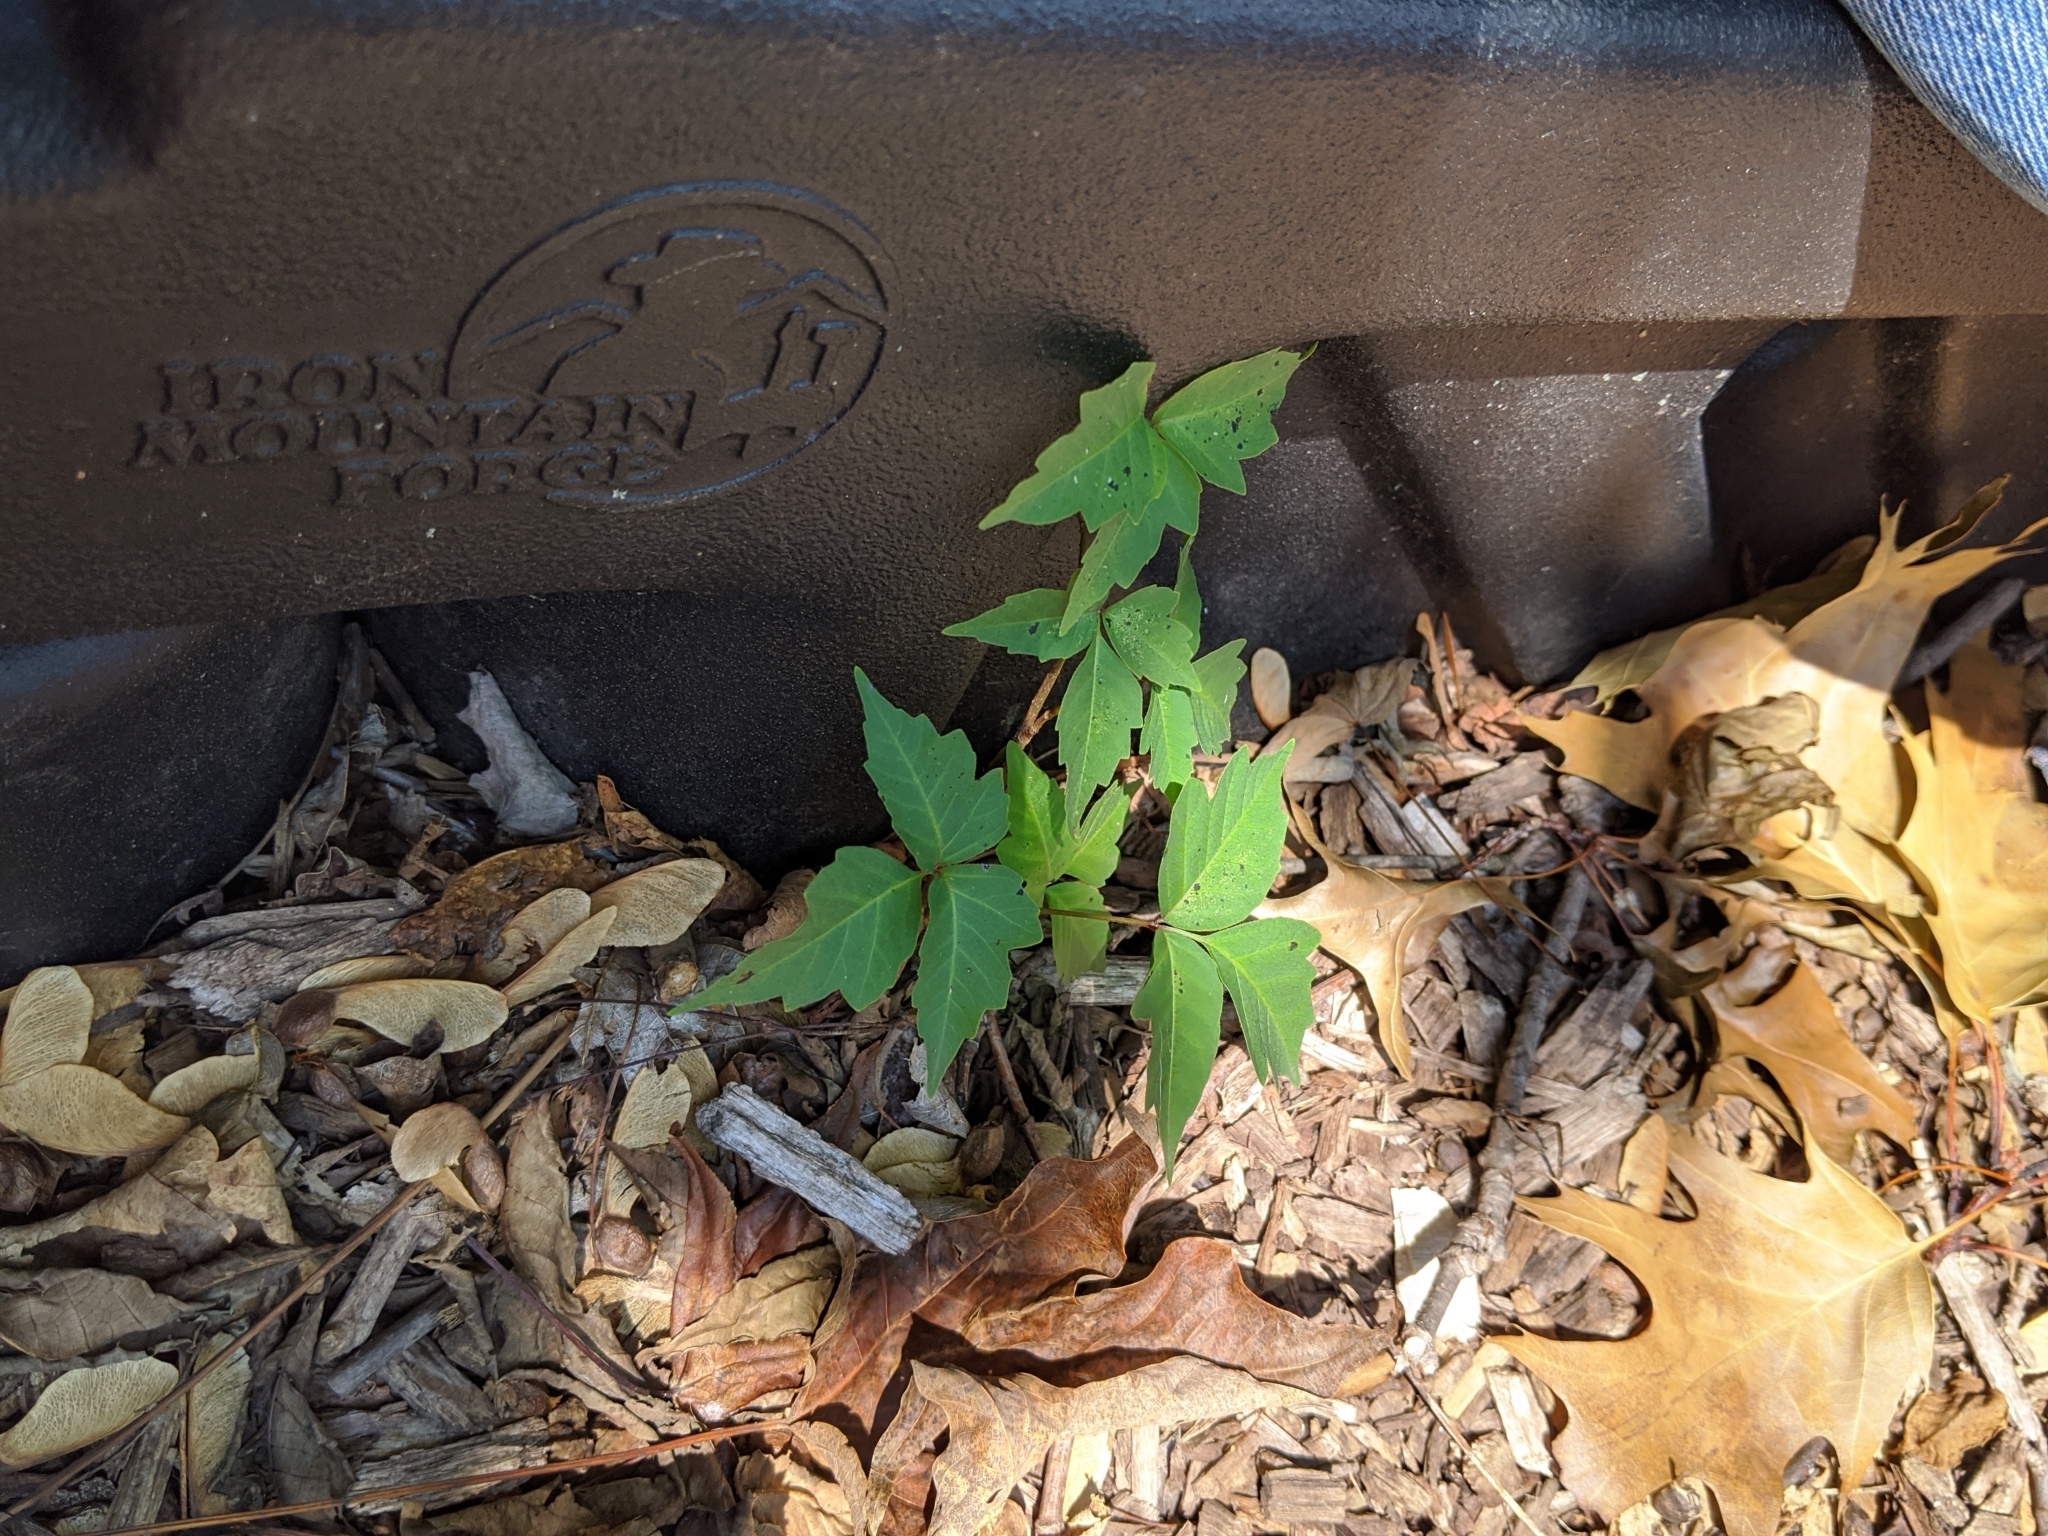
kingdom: Plantae
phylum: Tracheophyta
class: Magnoliopsida
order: Sapindales
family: Anacardiaceae
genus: Toxicodendron
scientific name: Toxicodendron radicans
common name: Poison ivy
